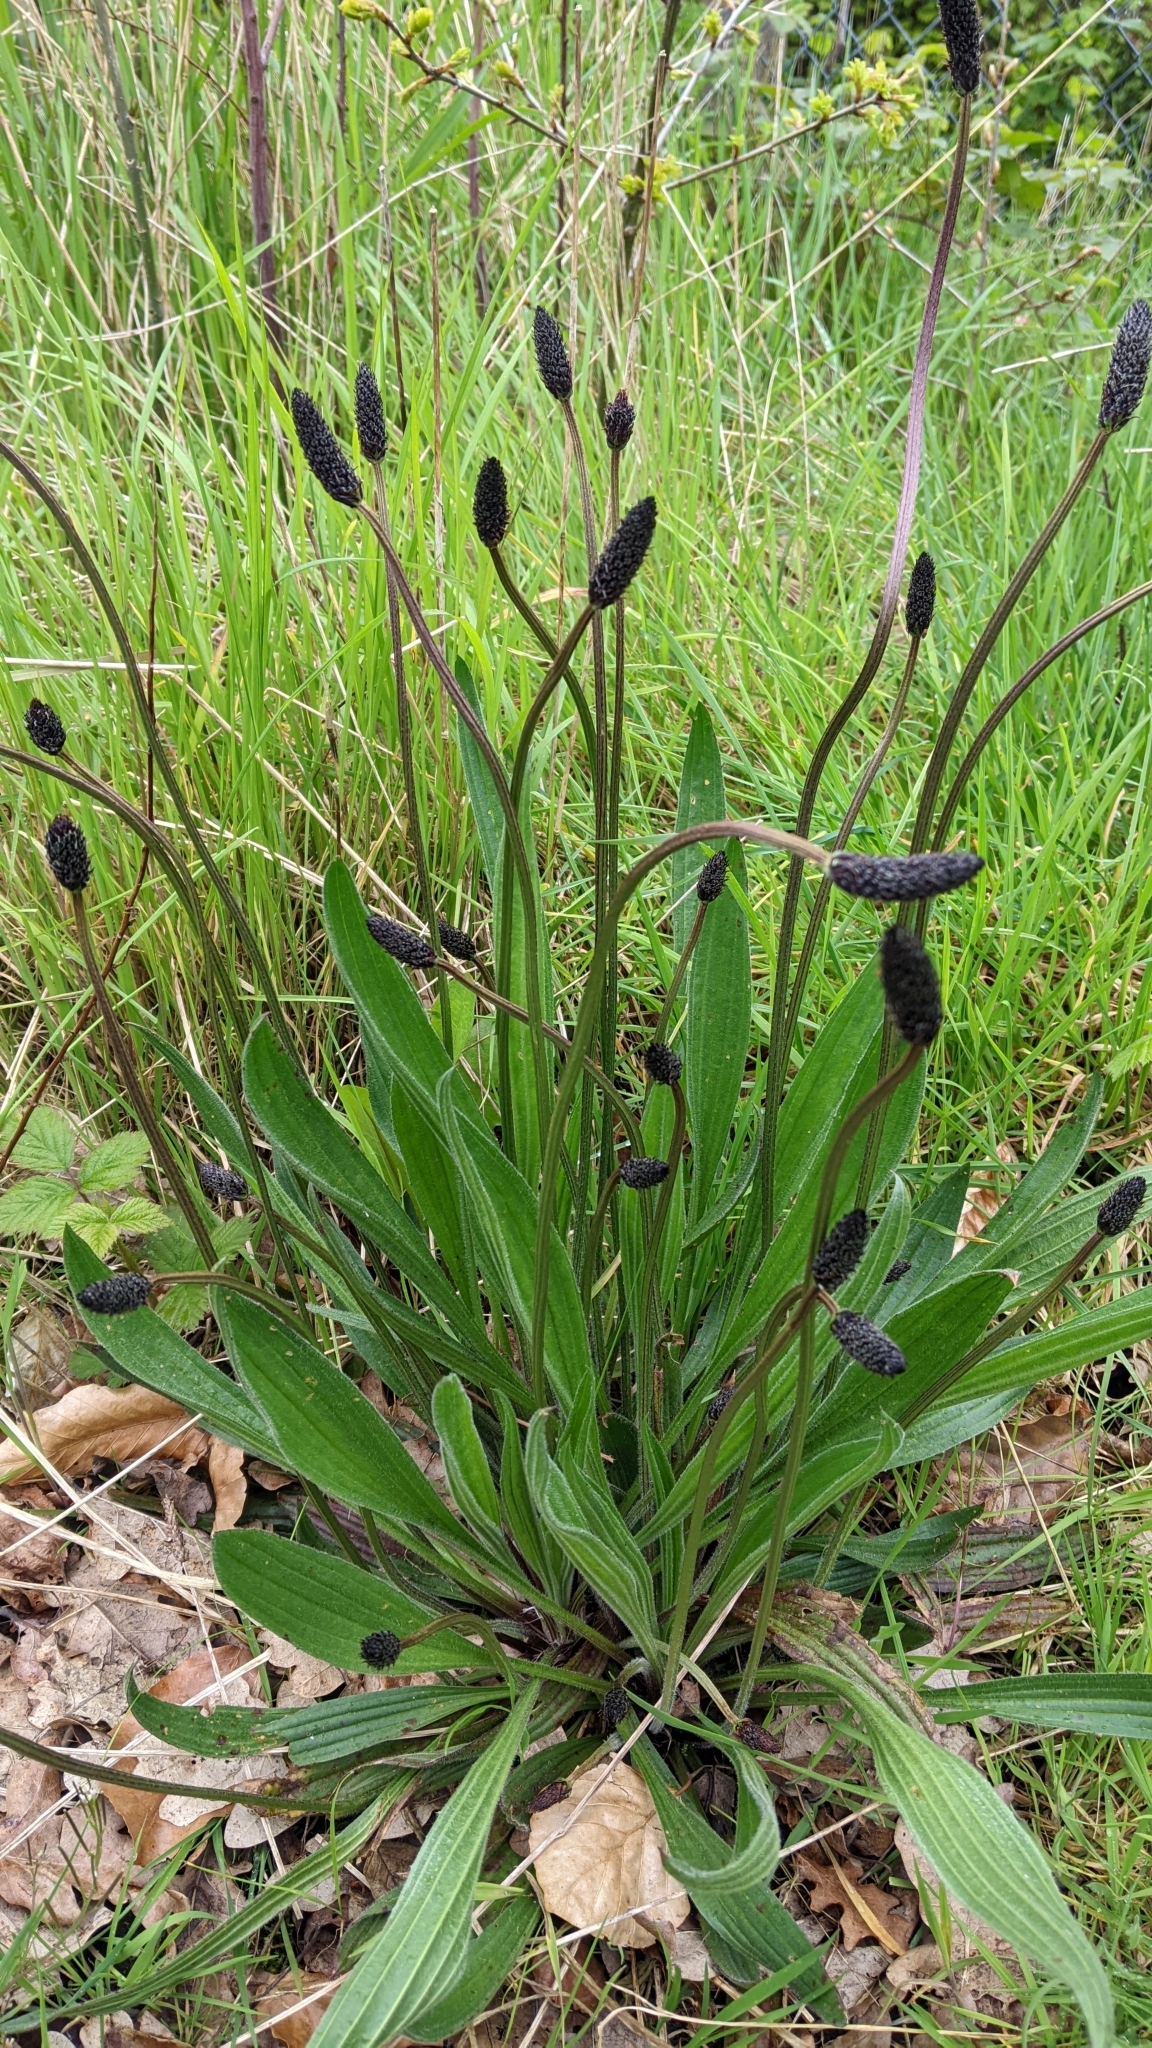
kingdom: Plantae
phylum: Tracheophyta
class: Magnoliopsida
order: Lamiales
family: Plantaginaceae
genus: Plantago
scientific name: Plantago lanceolata
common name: Ribwort plantain
